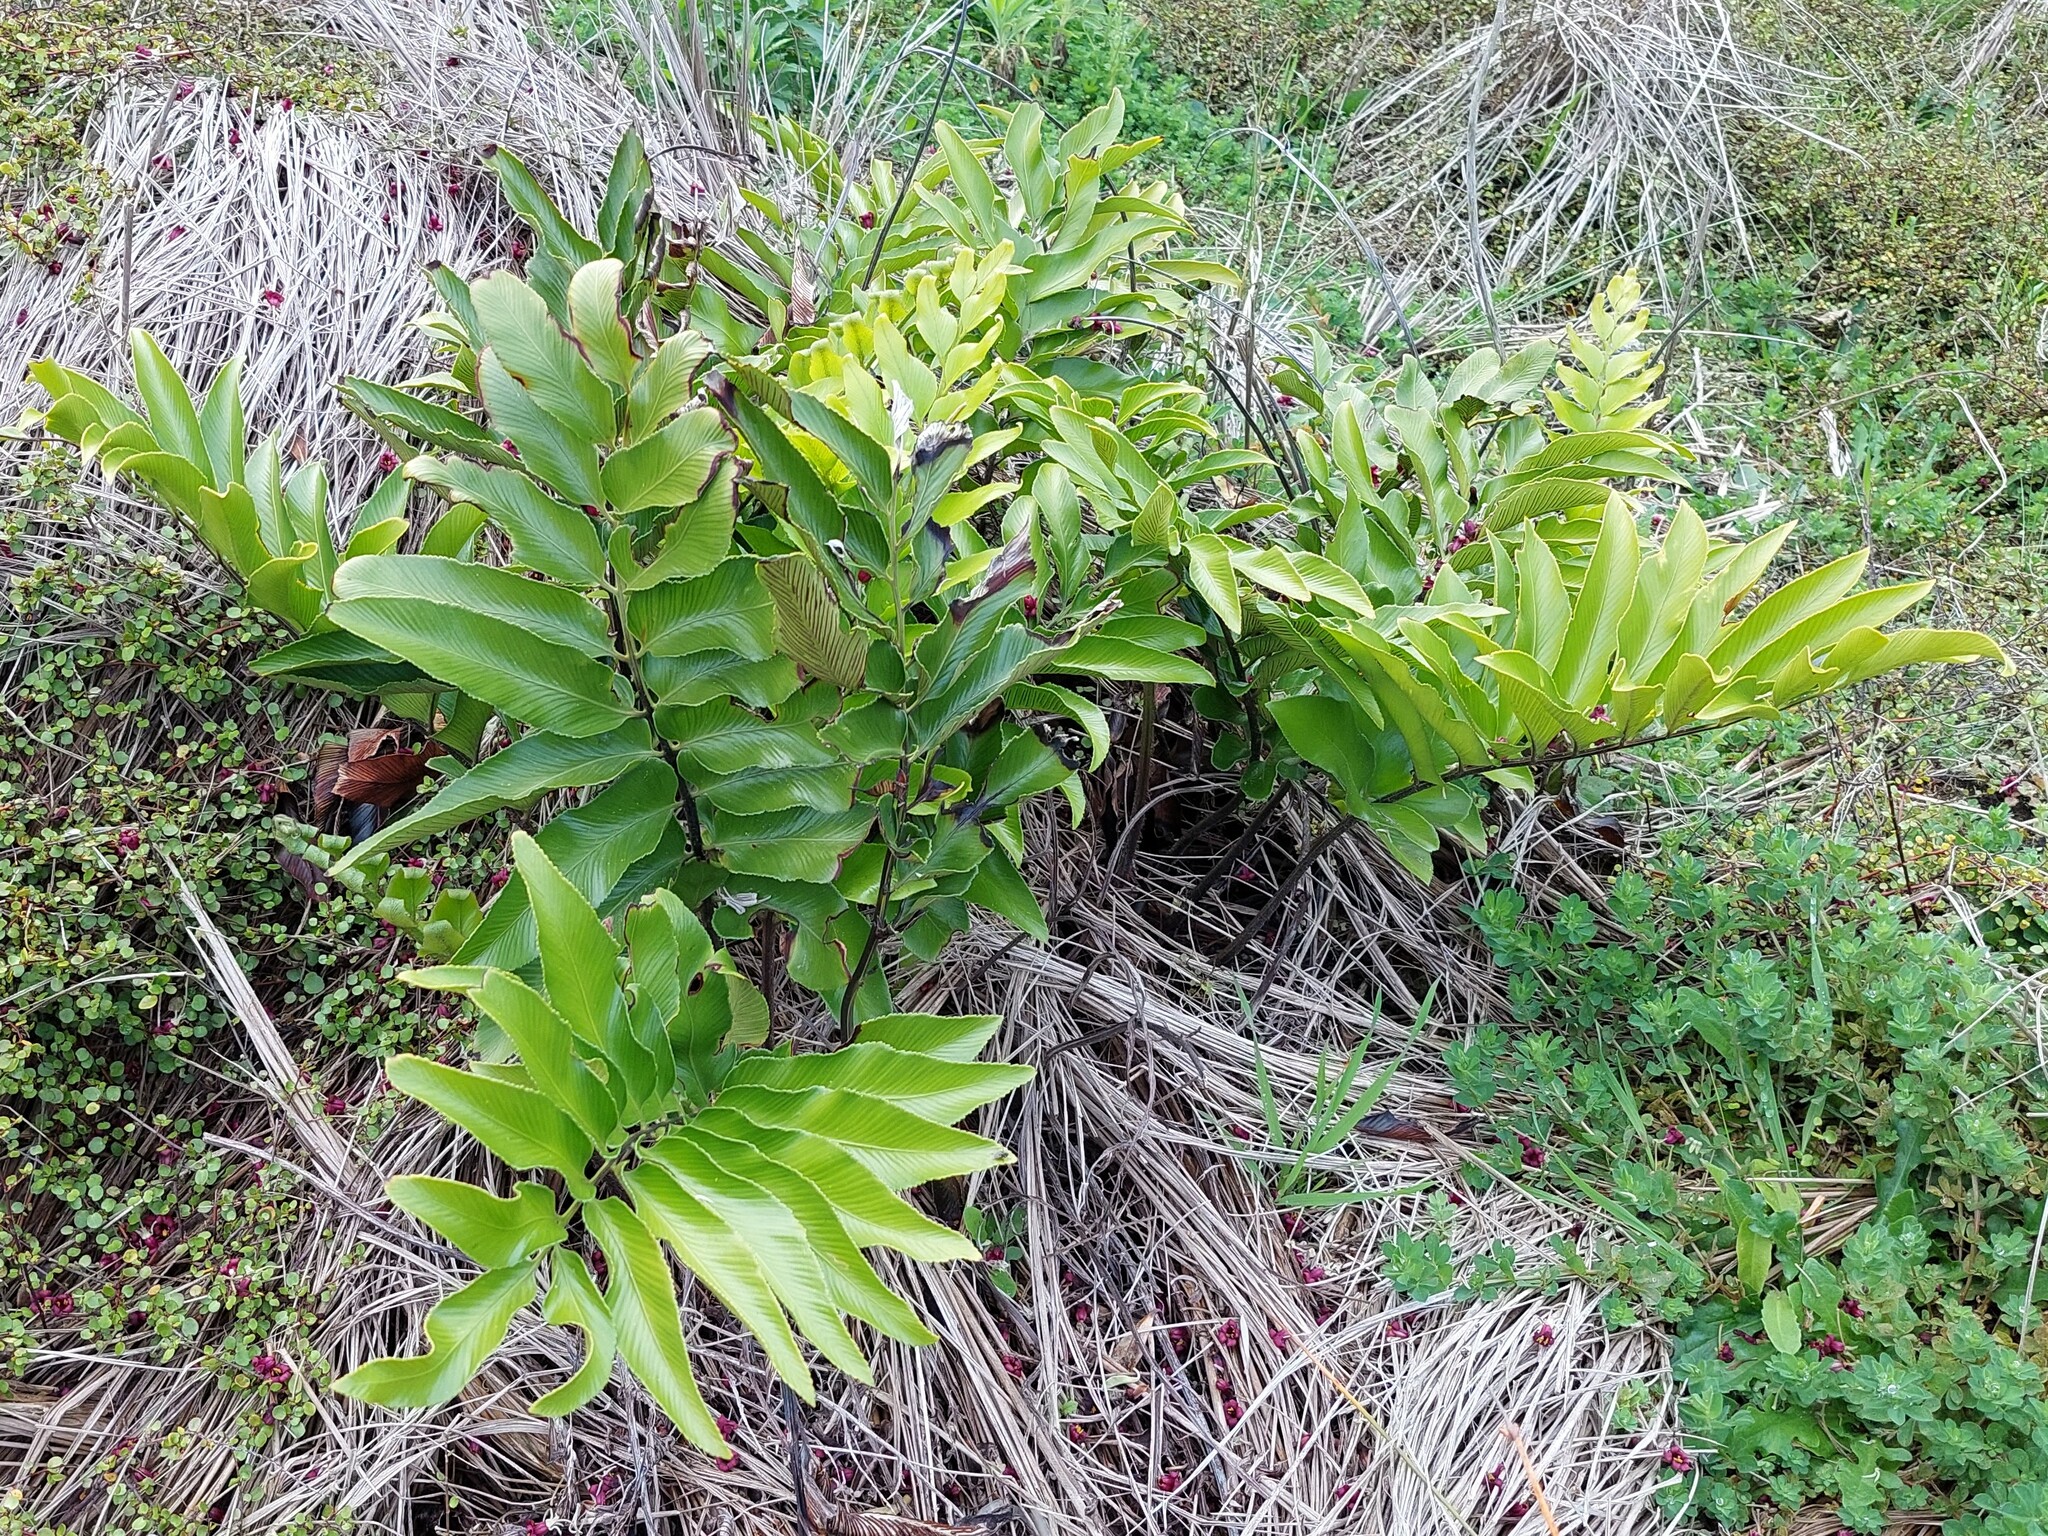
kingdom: Plantae
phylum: Tracheophyta
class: Polypodiopsida
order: Polypodiales
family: Aspleniaceae
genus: Asplenium
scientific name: Asplenium oblongifolium
